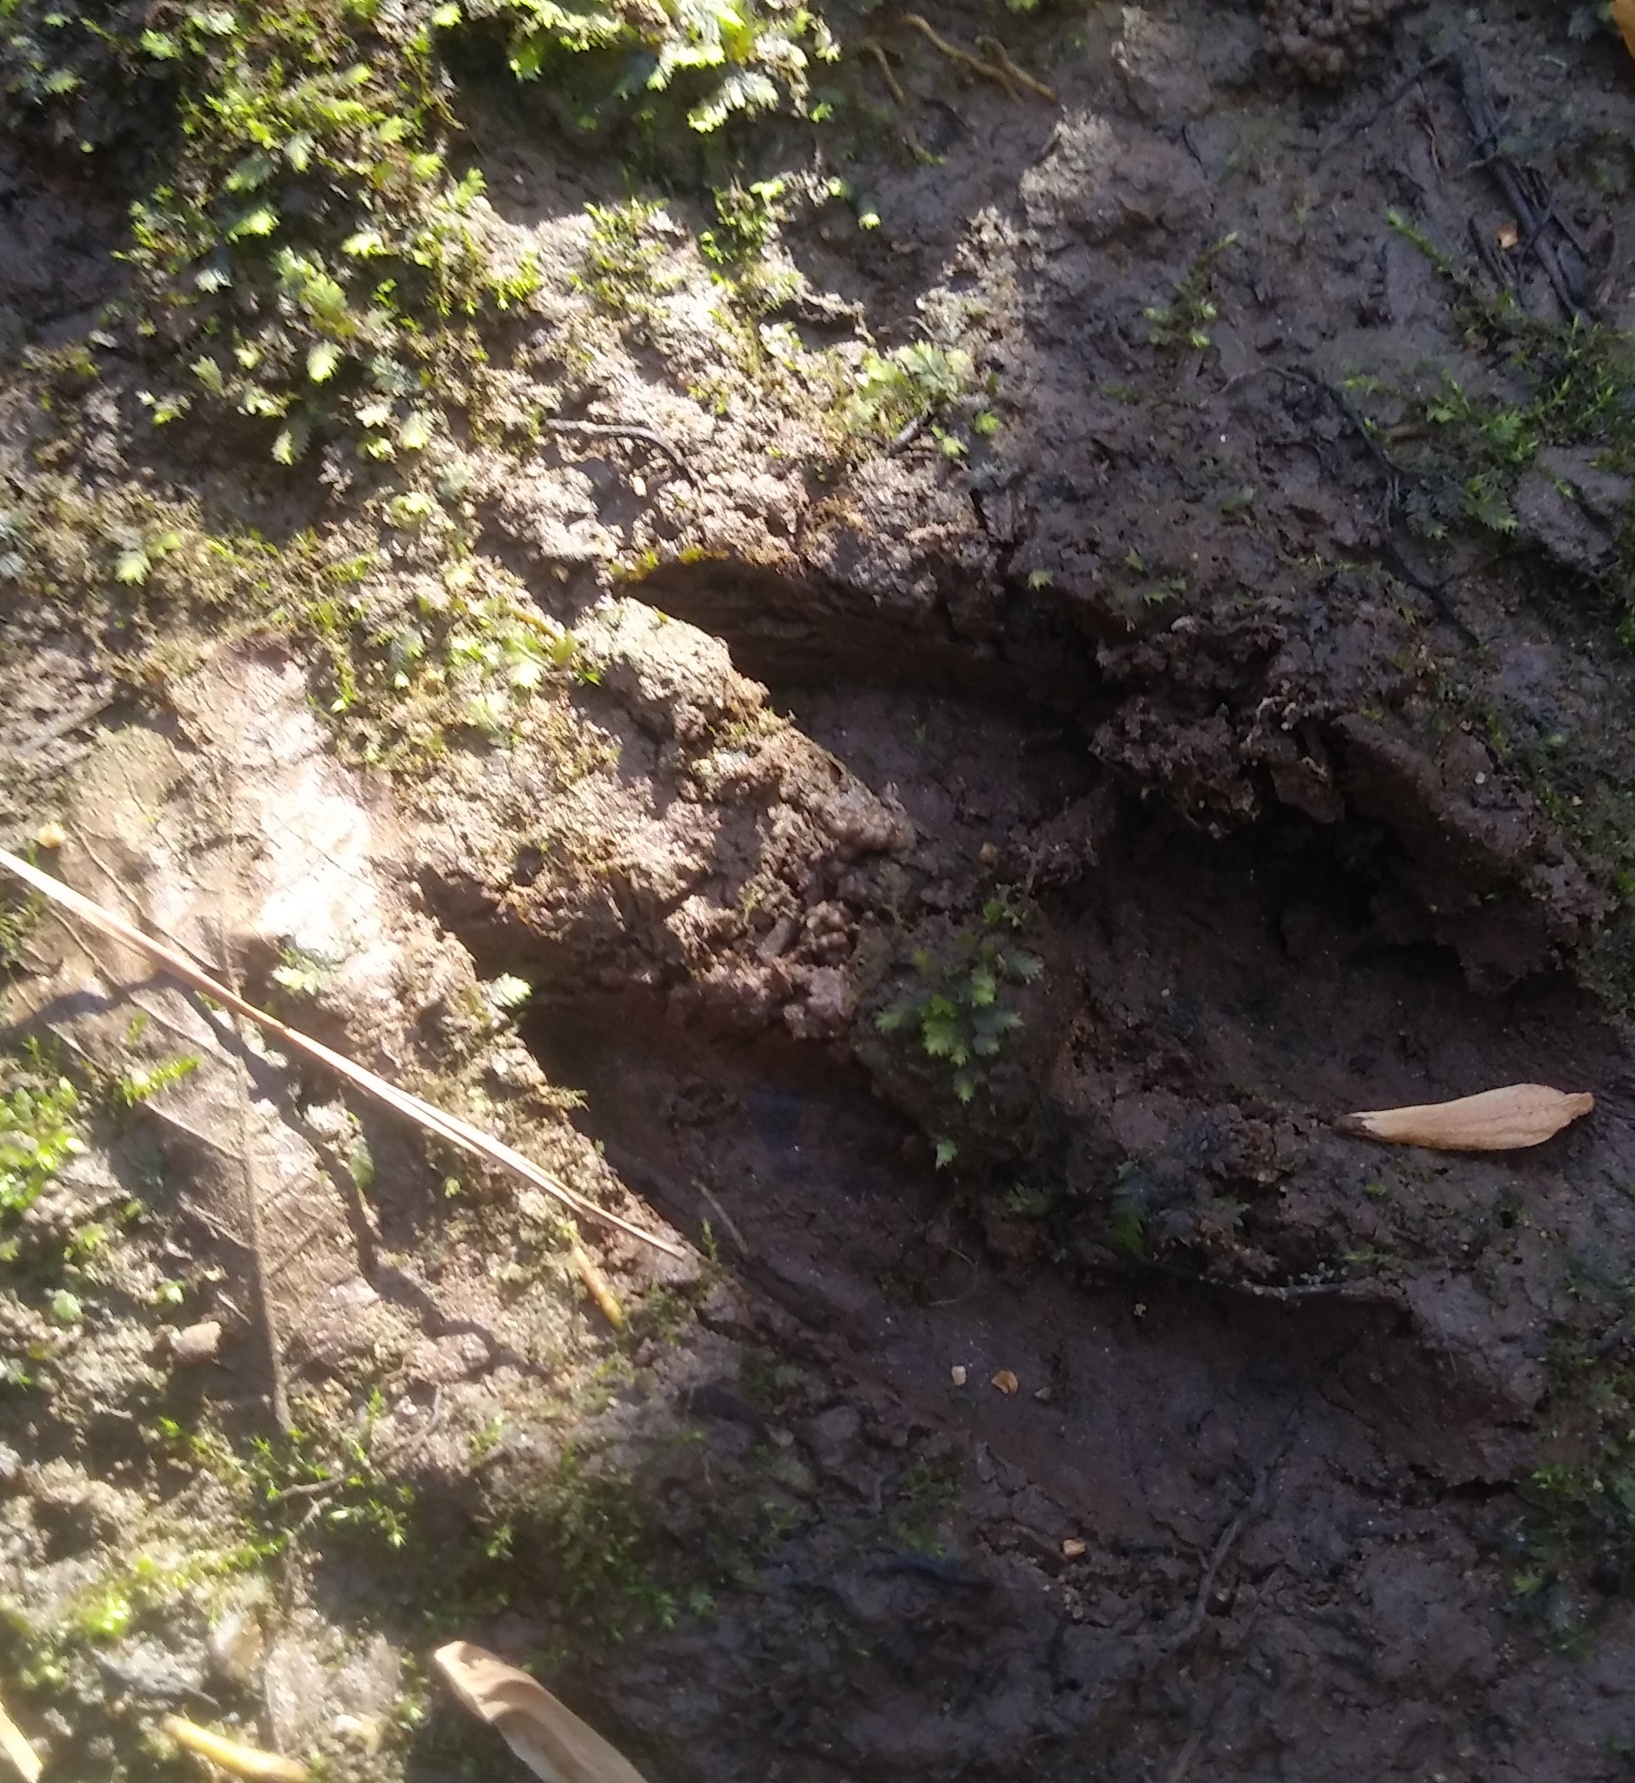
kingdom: Animalia
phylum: Chordata
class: Mammalia
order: Artiodactyla
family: Cervidae
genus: Odocoileus
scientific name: Odocoileus virginianus
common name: White-tailed deer
